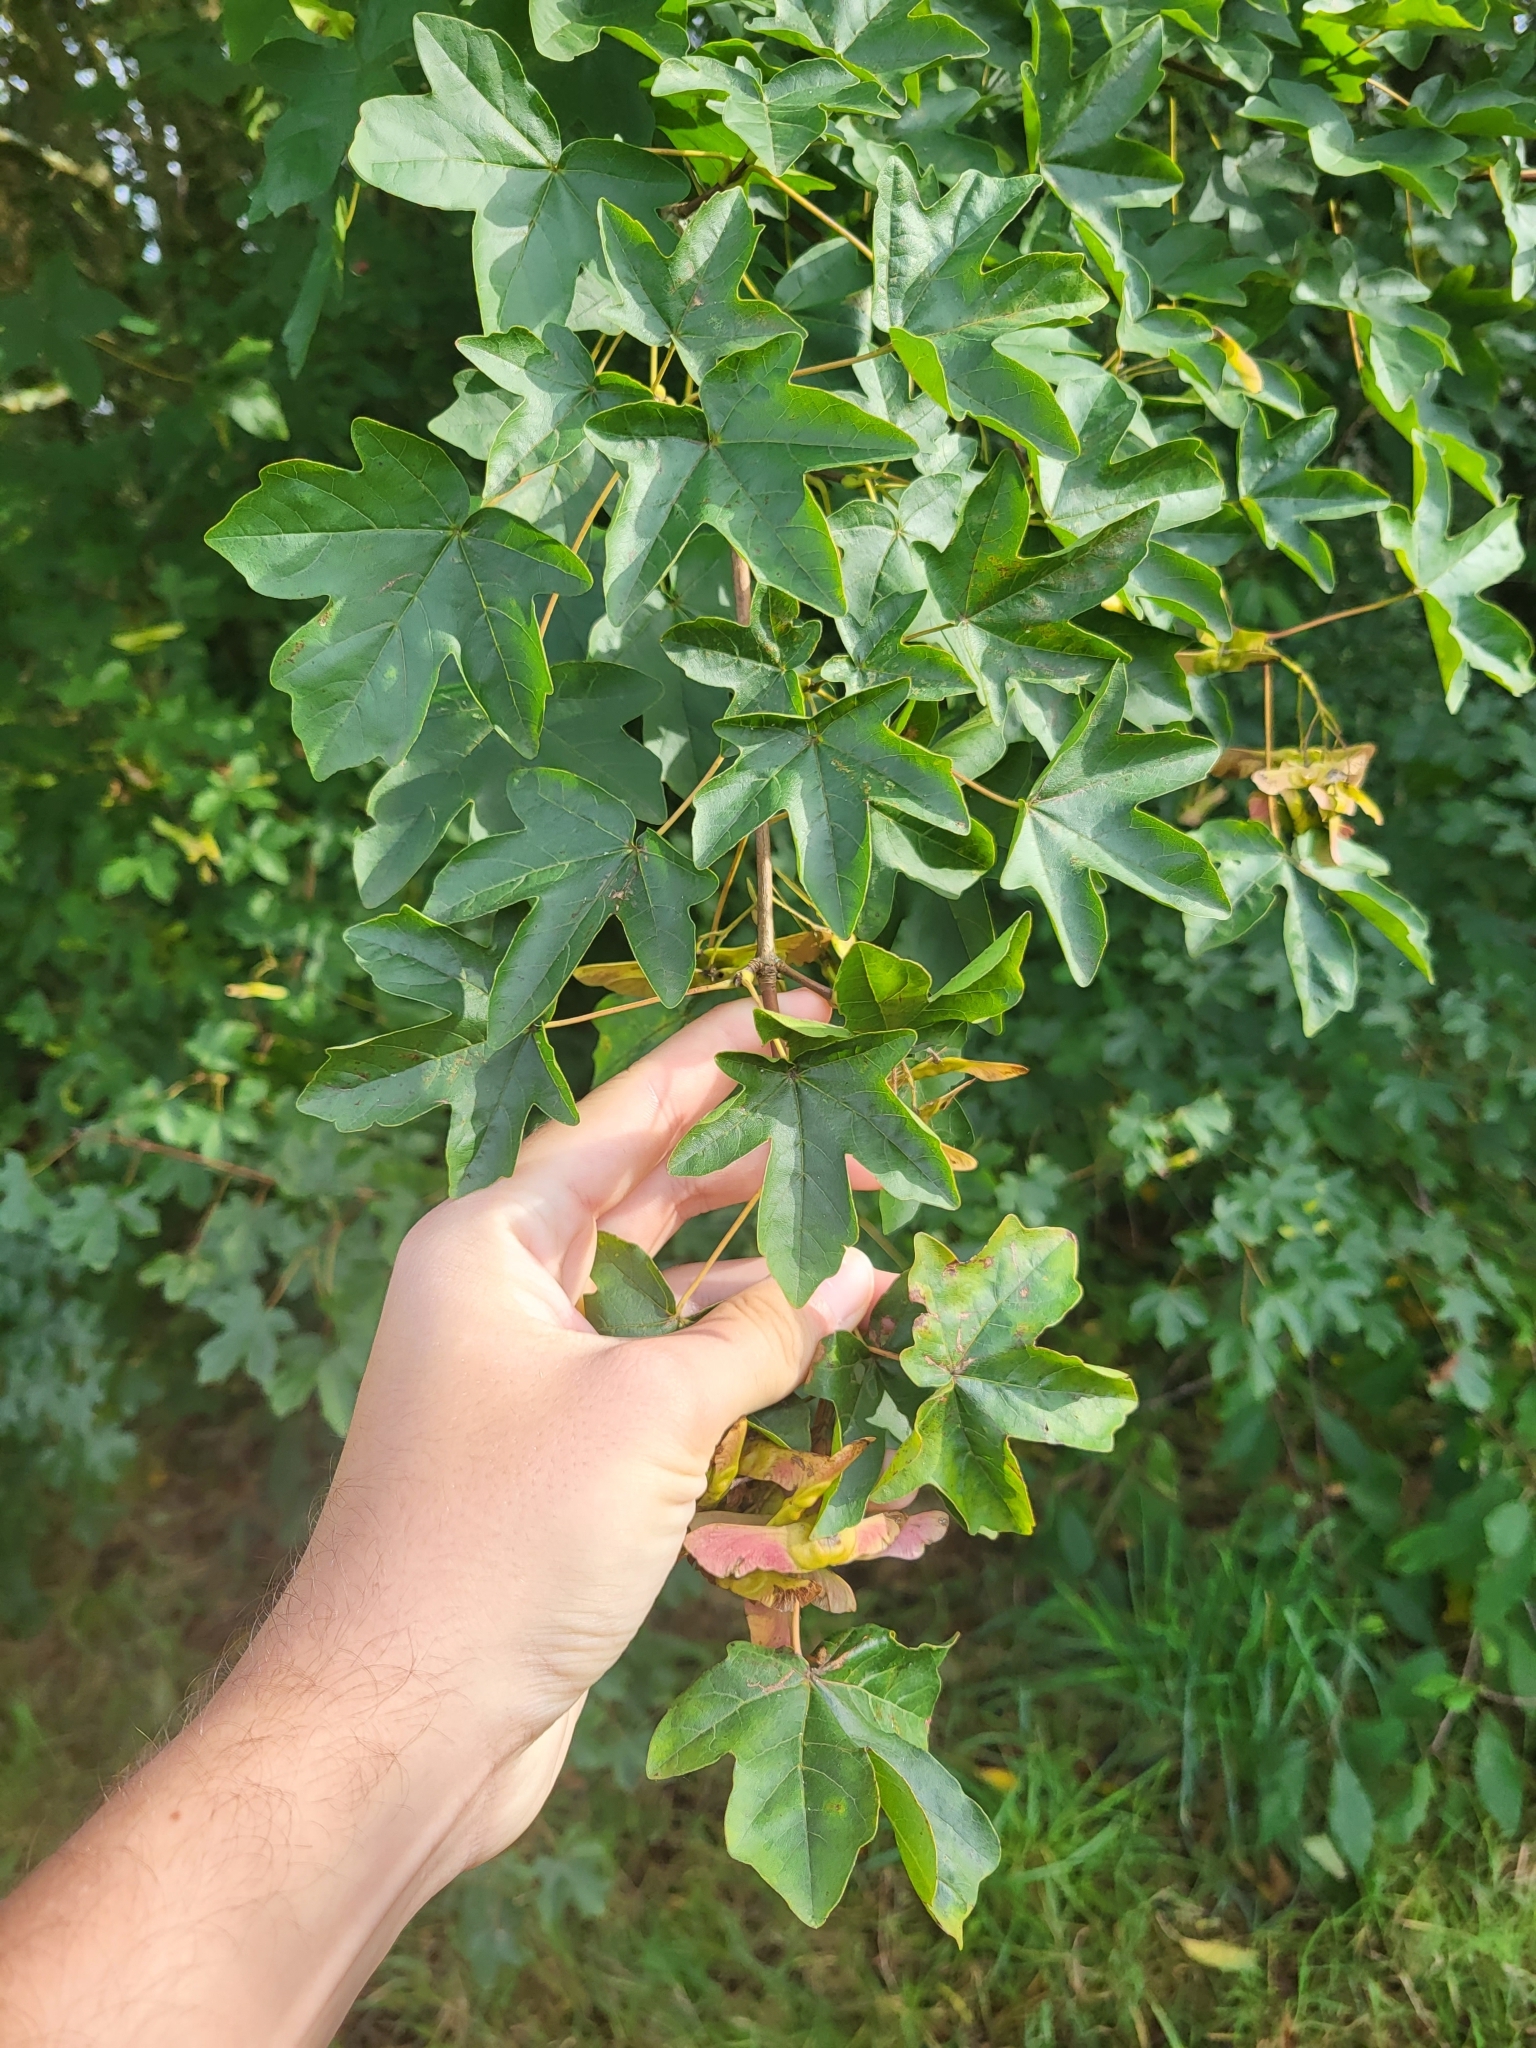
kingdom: Plantae
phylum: Tracheophyta
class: Magnoliopsida
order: Sapindales
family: Sapindaceae
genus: Acer
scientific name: Acer campestre
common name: Field maple
